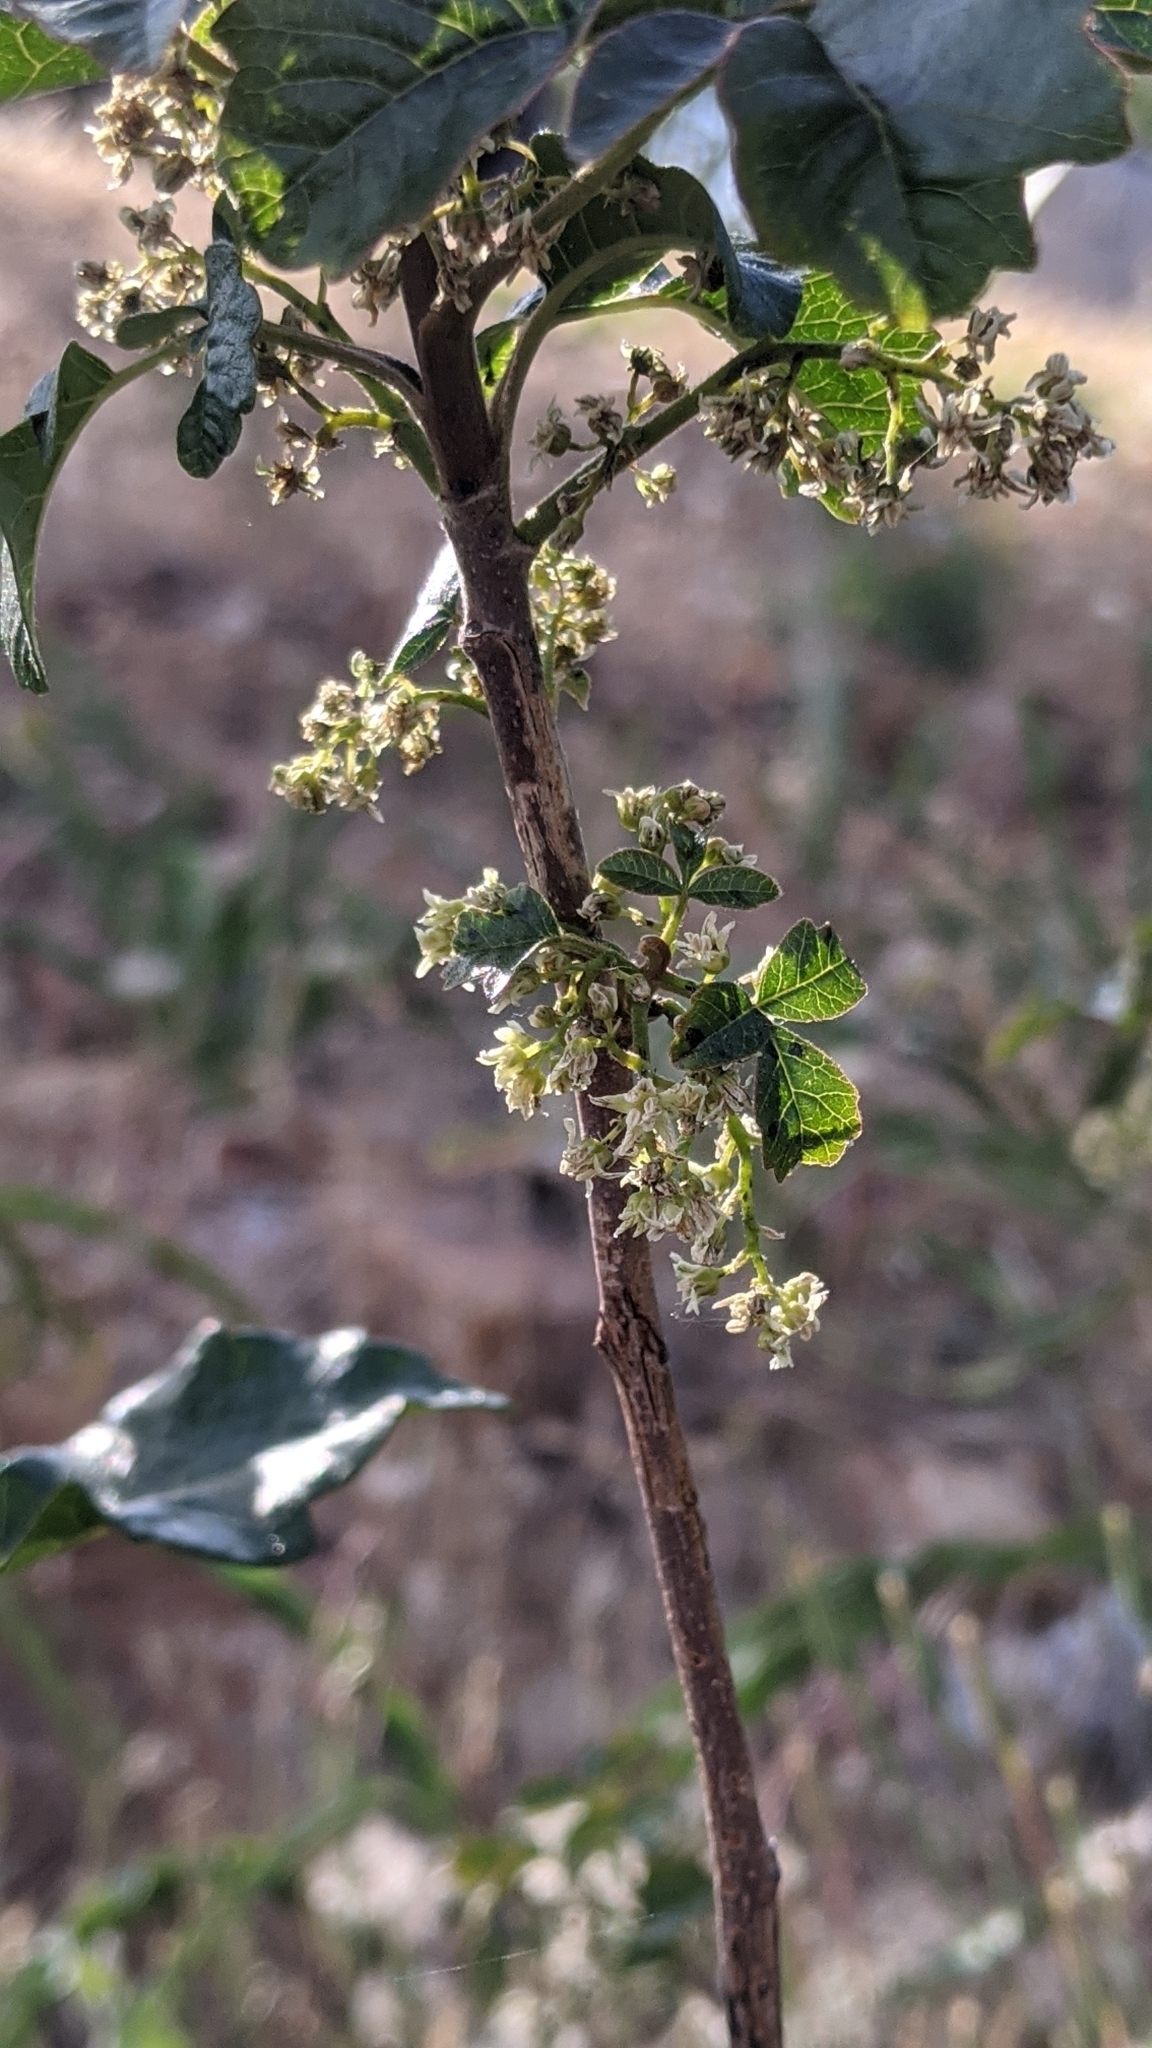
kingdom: Plantae
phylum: Tracheophyta
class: Magnoliopsida
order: Sapindales
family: Anacardiaceae
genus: Toxicodendron
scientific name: Toxicodendron diversilobum
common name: Pacific poison-oak
